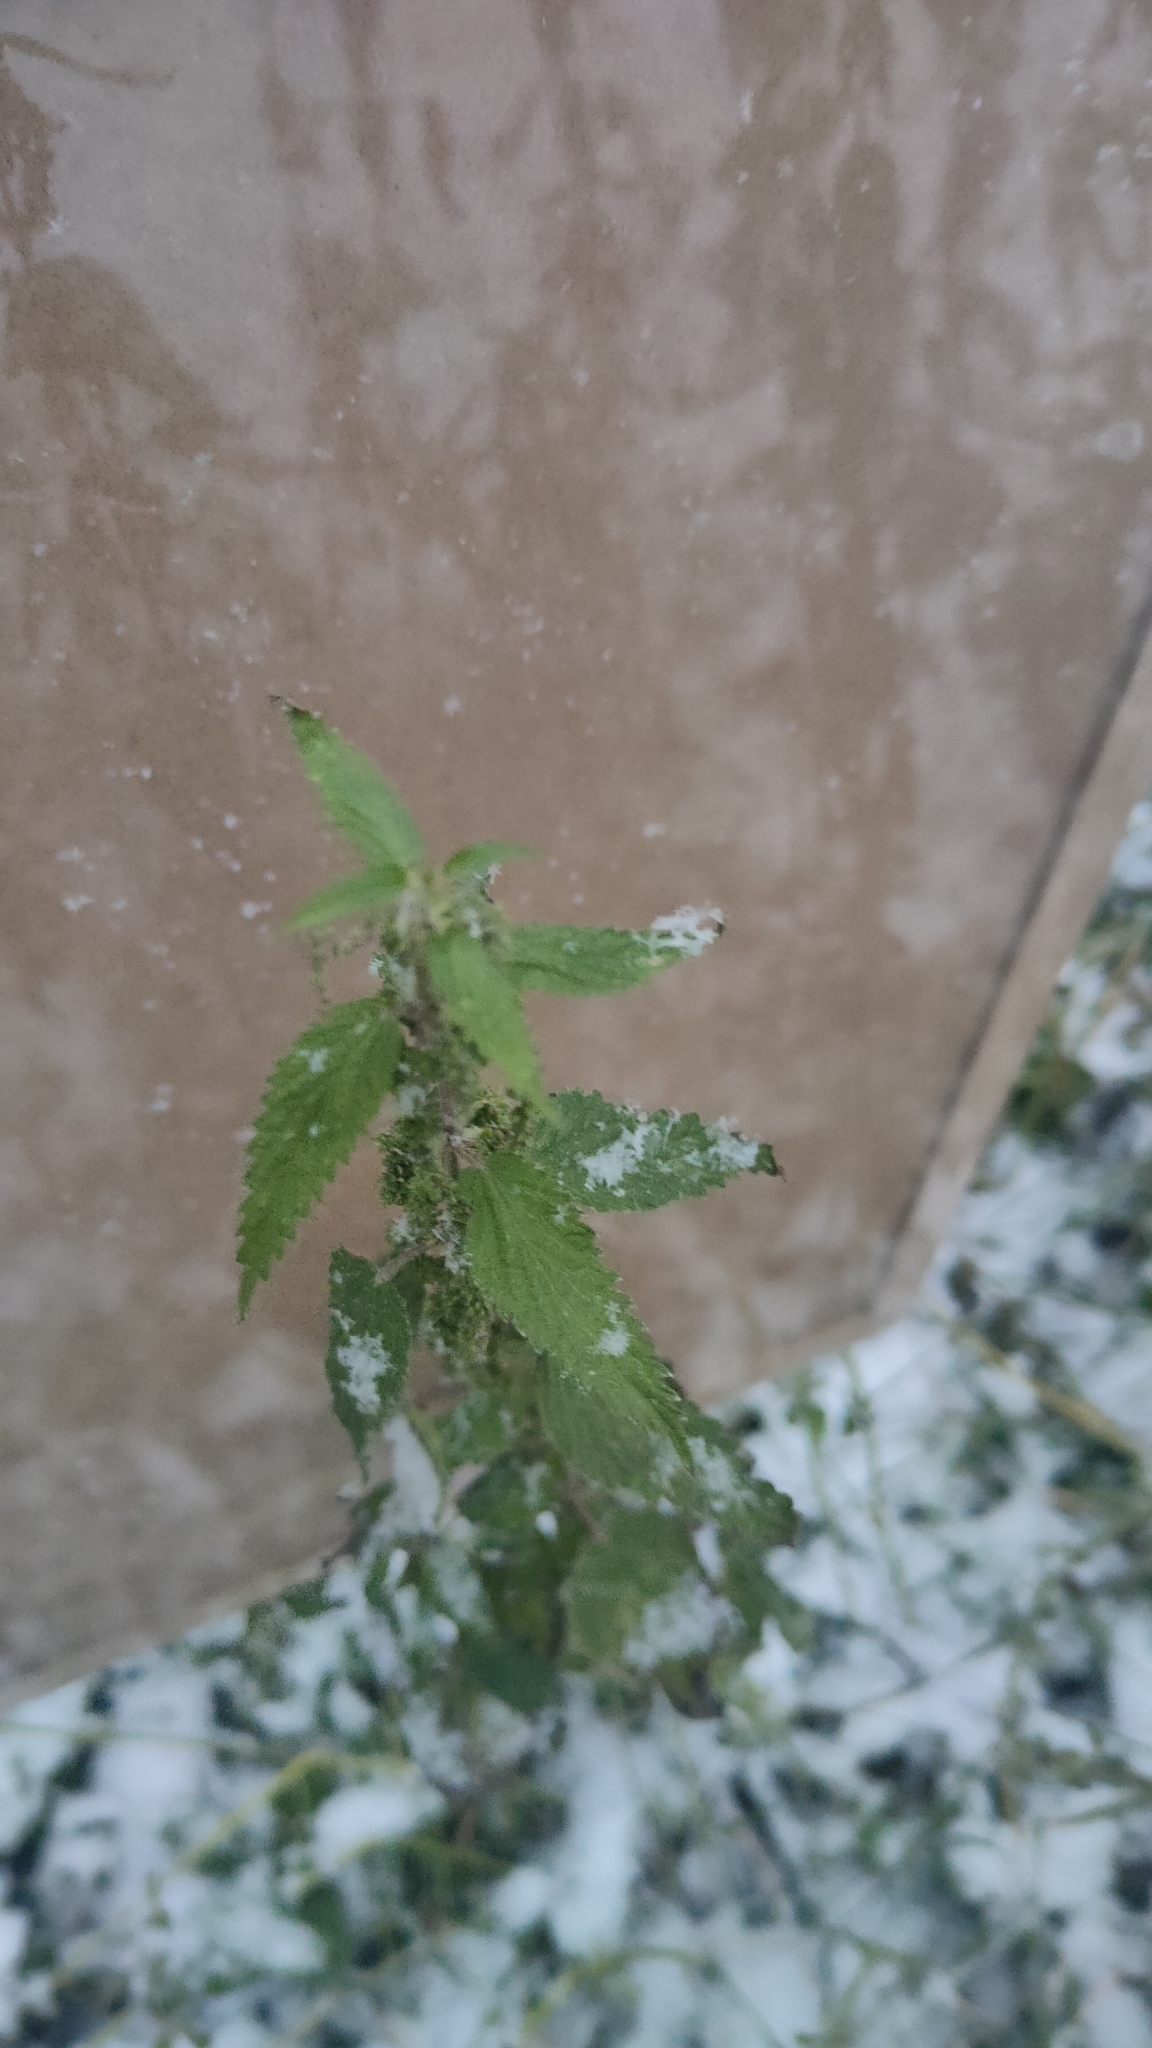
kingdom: Plantae
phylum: Tracheophyta
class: Magnoliopsida
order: Rosales
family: Urticaceae
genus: Urtica
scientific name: Urtica dioica
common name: Common nettle
